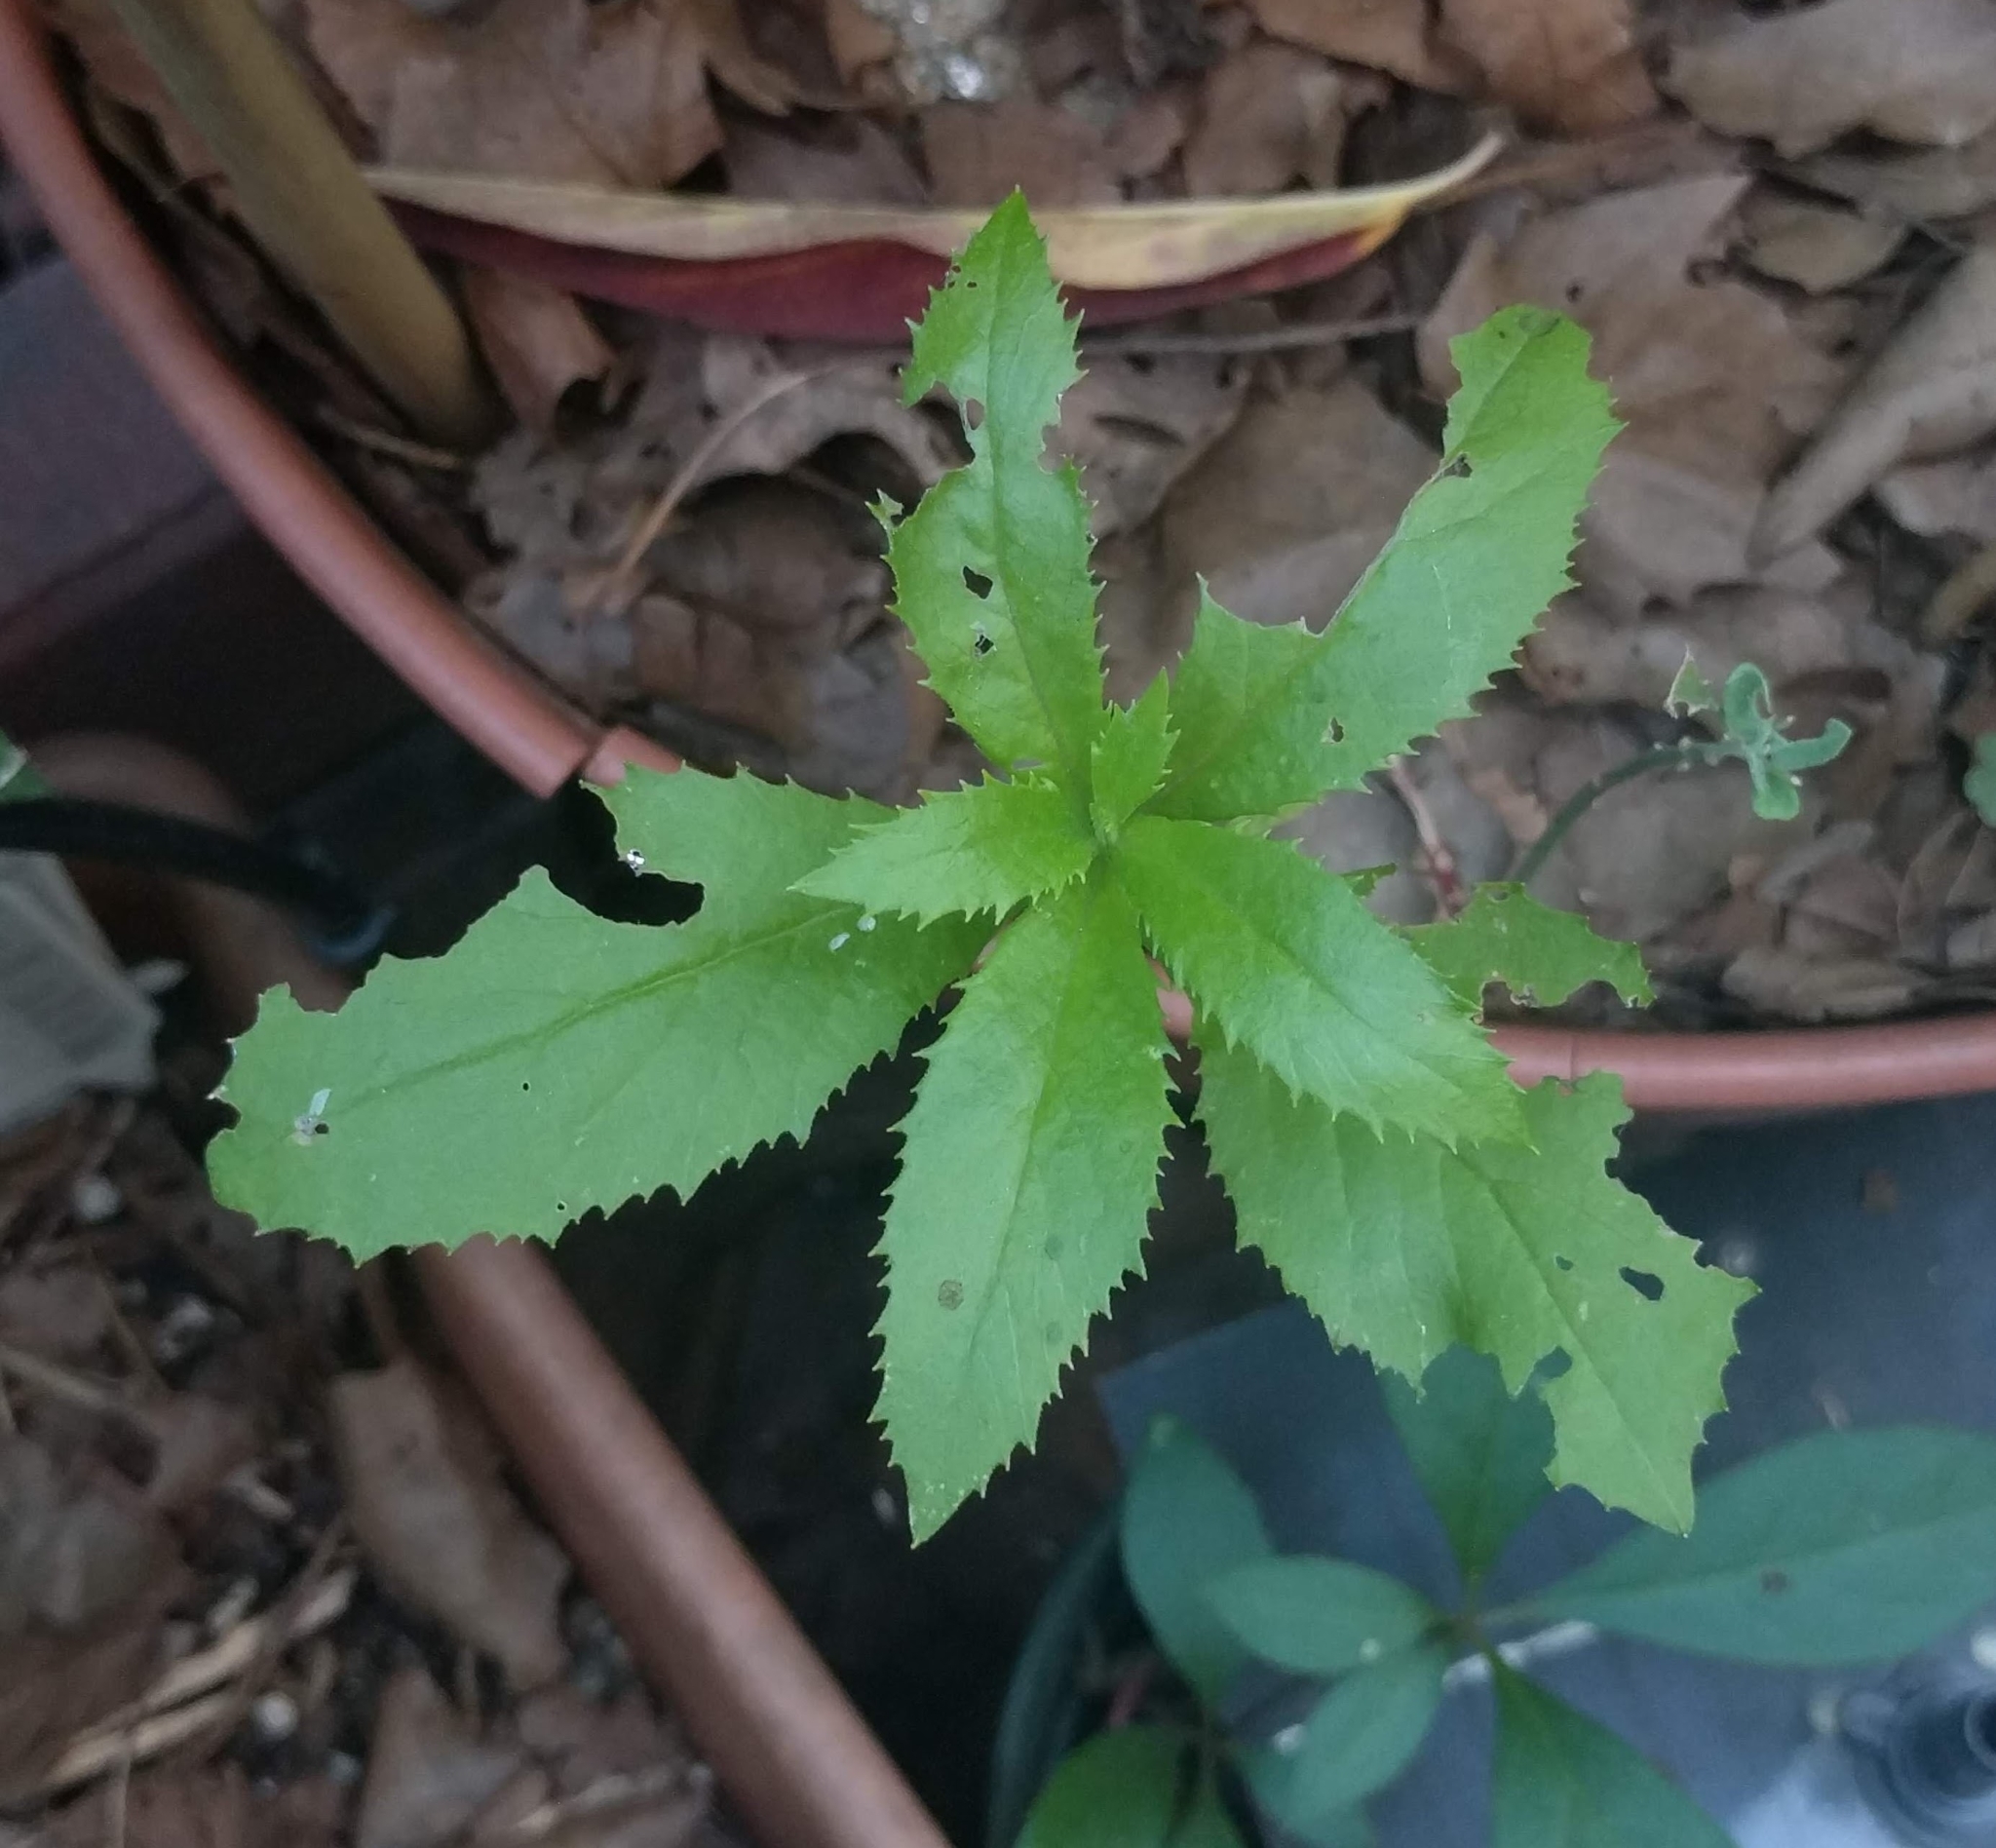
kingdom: Plantae
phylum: Tracheophyta
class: Magnoliopsida
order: Asterales
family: Asteraceae
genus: Erechtites
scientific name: Erechtites hieraciifolius
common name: American burnweed
